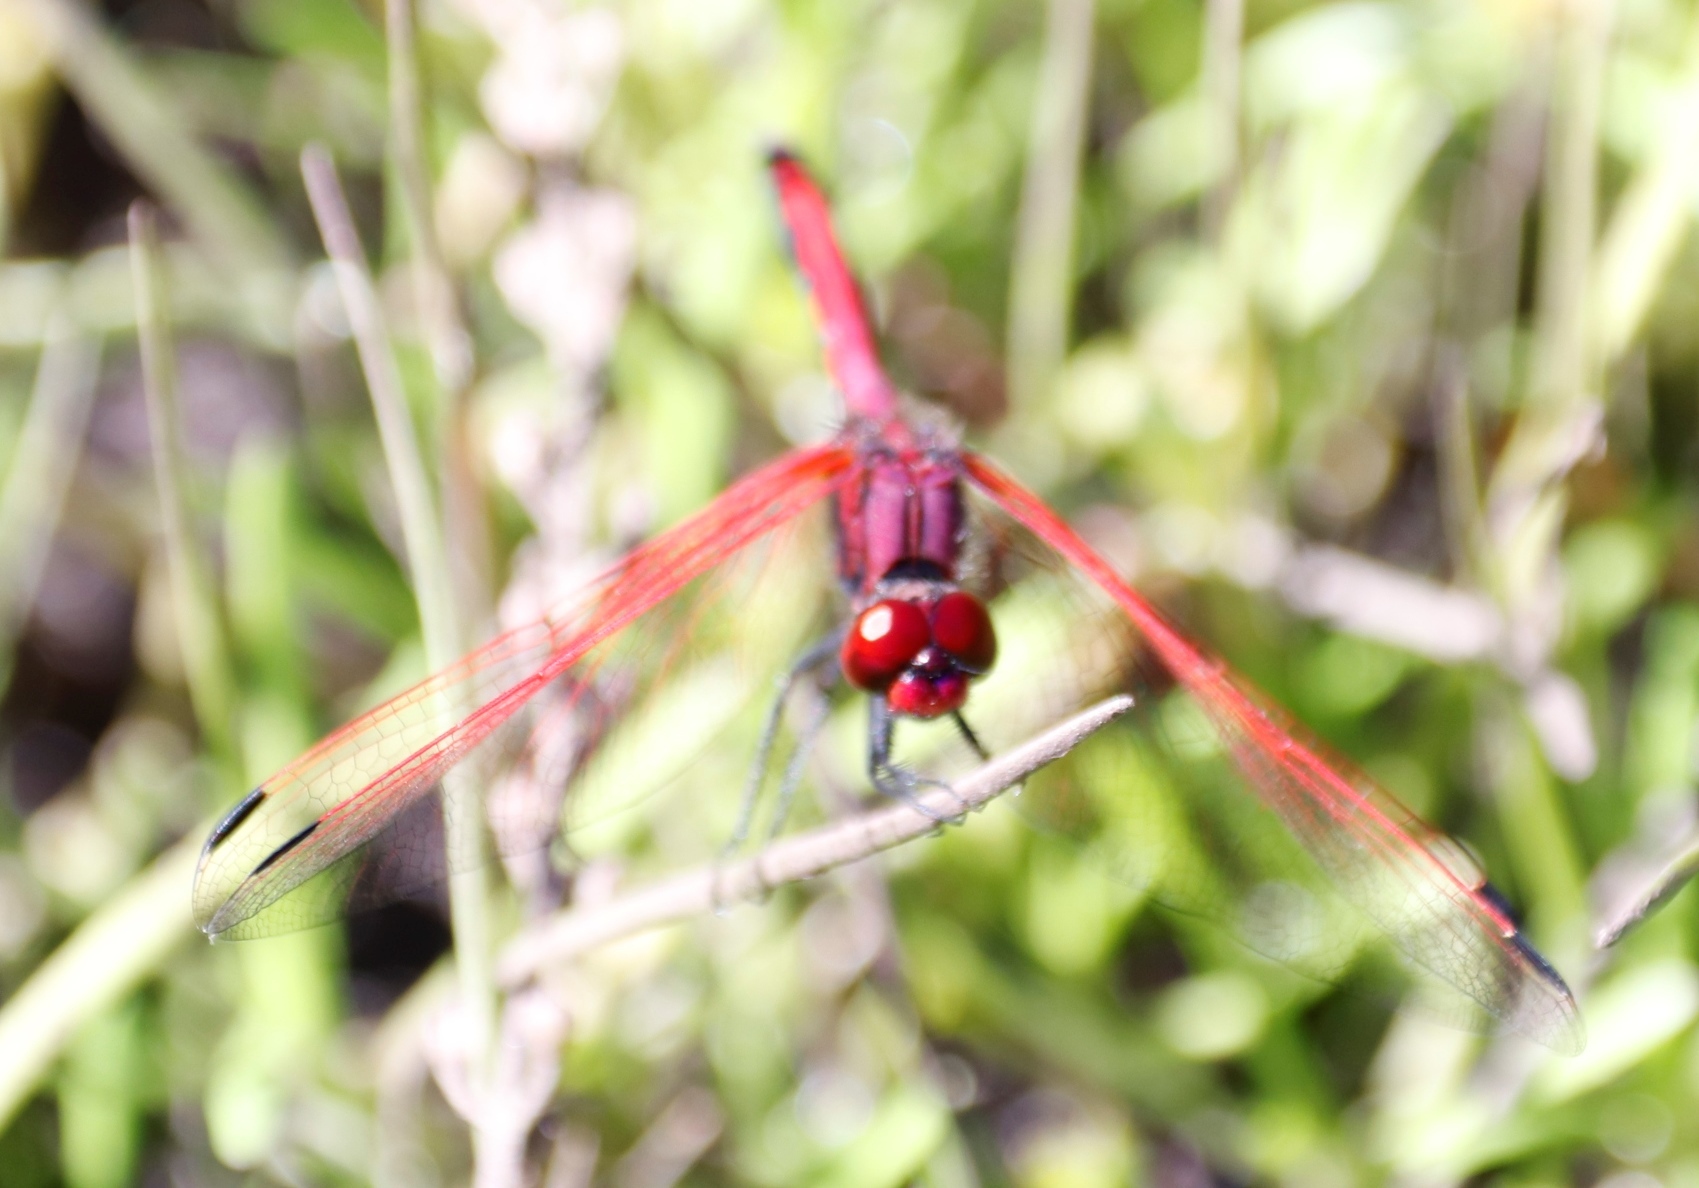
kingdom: Animalia
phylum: Arthropoda
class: Insecta
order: Odonata
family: Libellulidae
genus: Trithemis
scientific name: Trithemis arteriosa
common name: Red-veined dropwing
